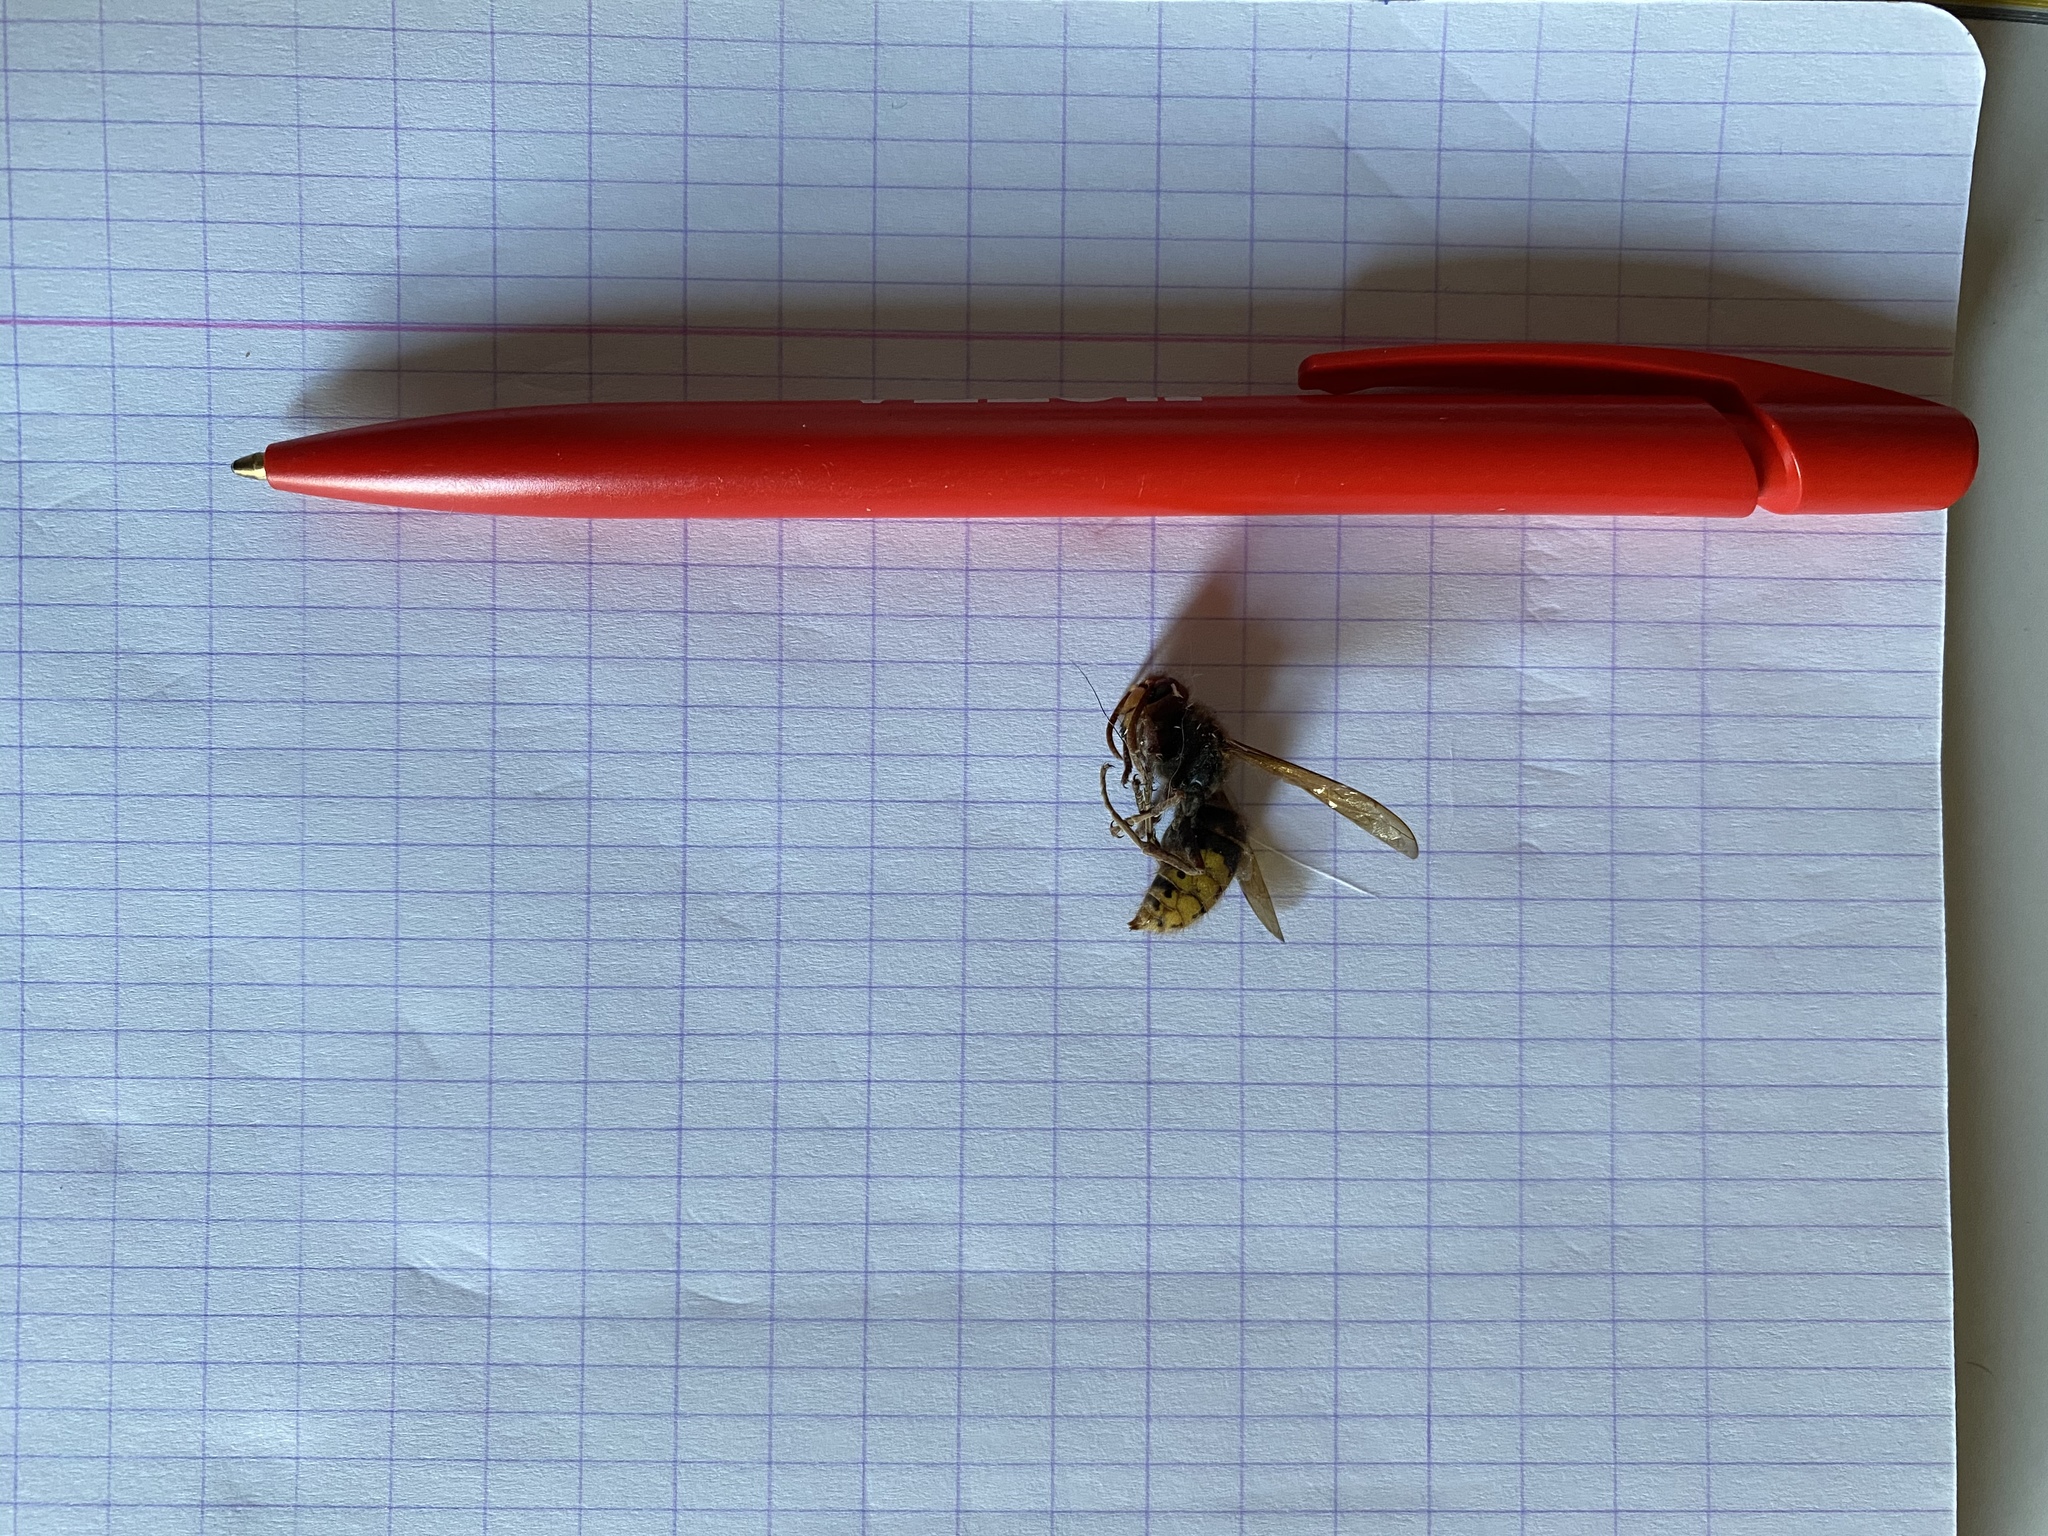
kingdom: Animalia
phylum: Arthropoda
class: Insecta
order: Hymenoptera
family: Vespidae
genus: Vespa
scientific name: Vespa crabro
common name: Hornet
